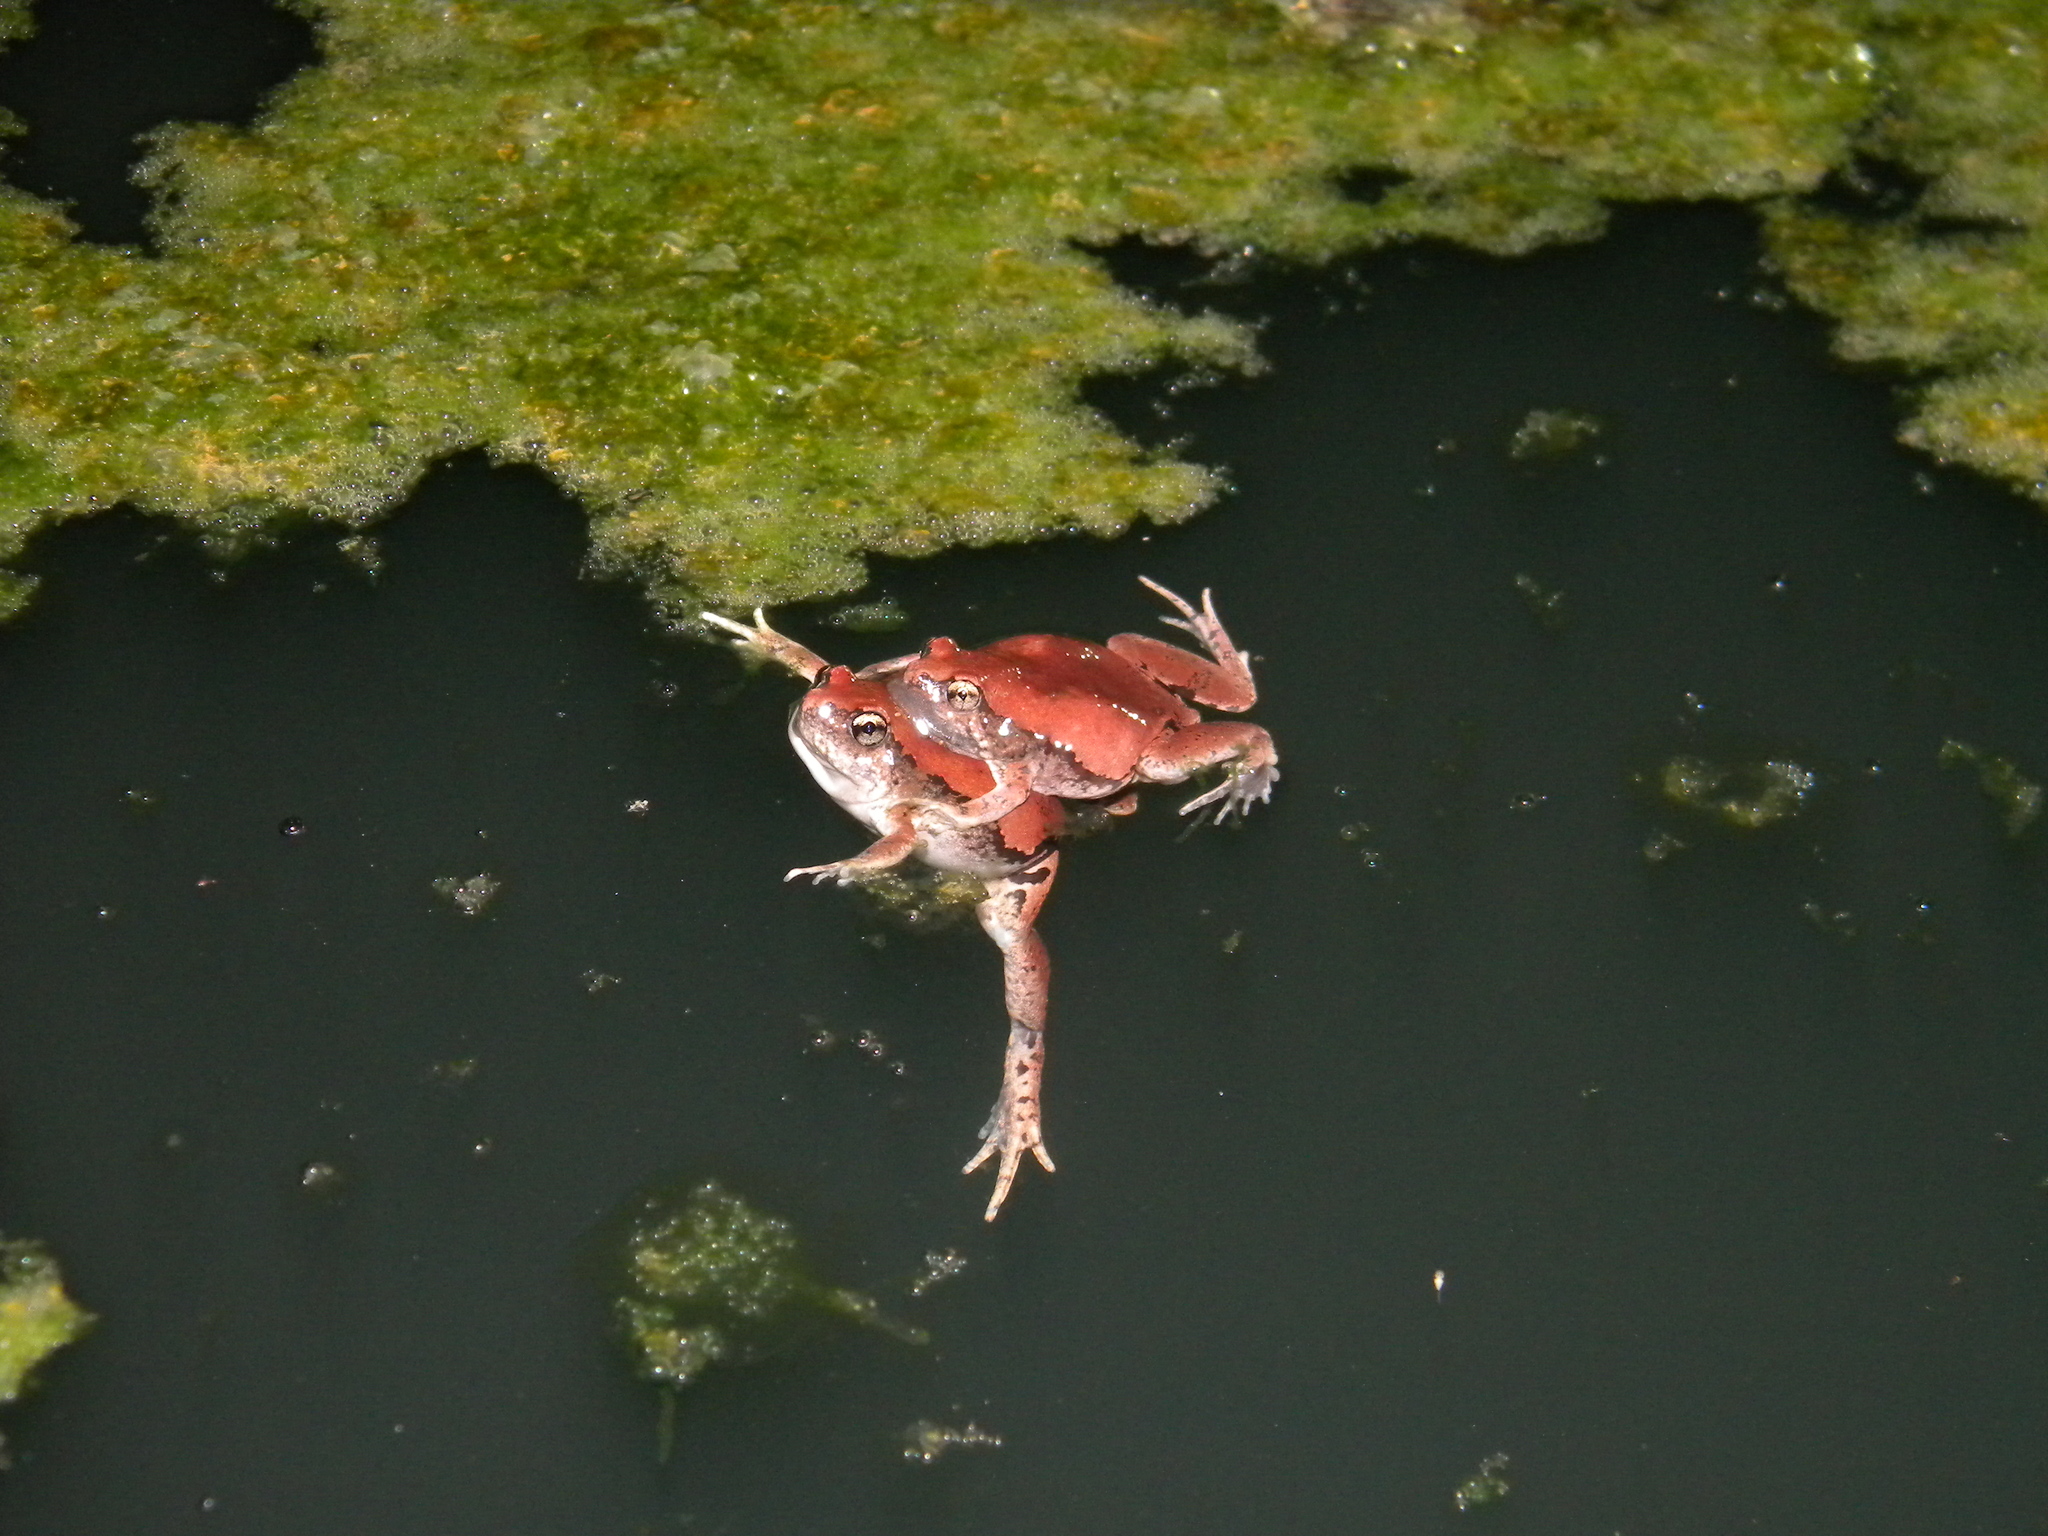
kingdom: Animalia
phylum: Chordata
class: Amphibia
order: Anura
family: Microhylidae
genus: Microhyla
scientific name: Microhyla rubra
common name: Guangdong rice frog
